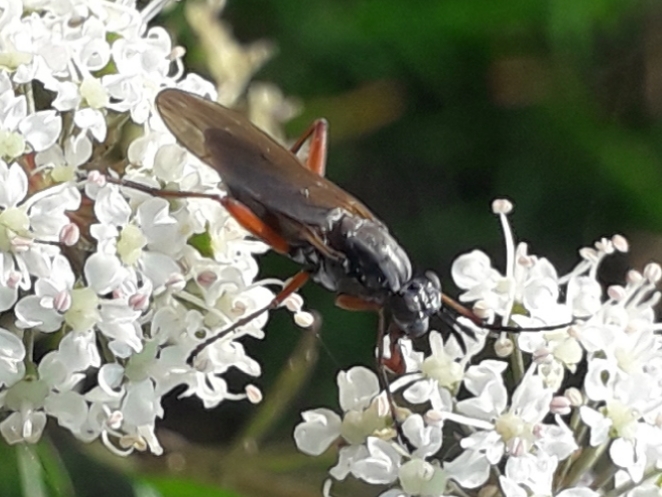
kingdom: Animalia
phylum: Arthropoda
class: Insecta
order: Diptera
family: Sciomyzidae
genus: Sepedon
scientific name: Sepedon sphegea
